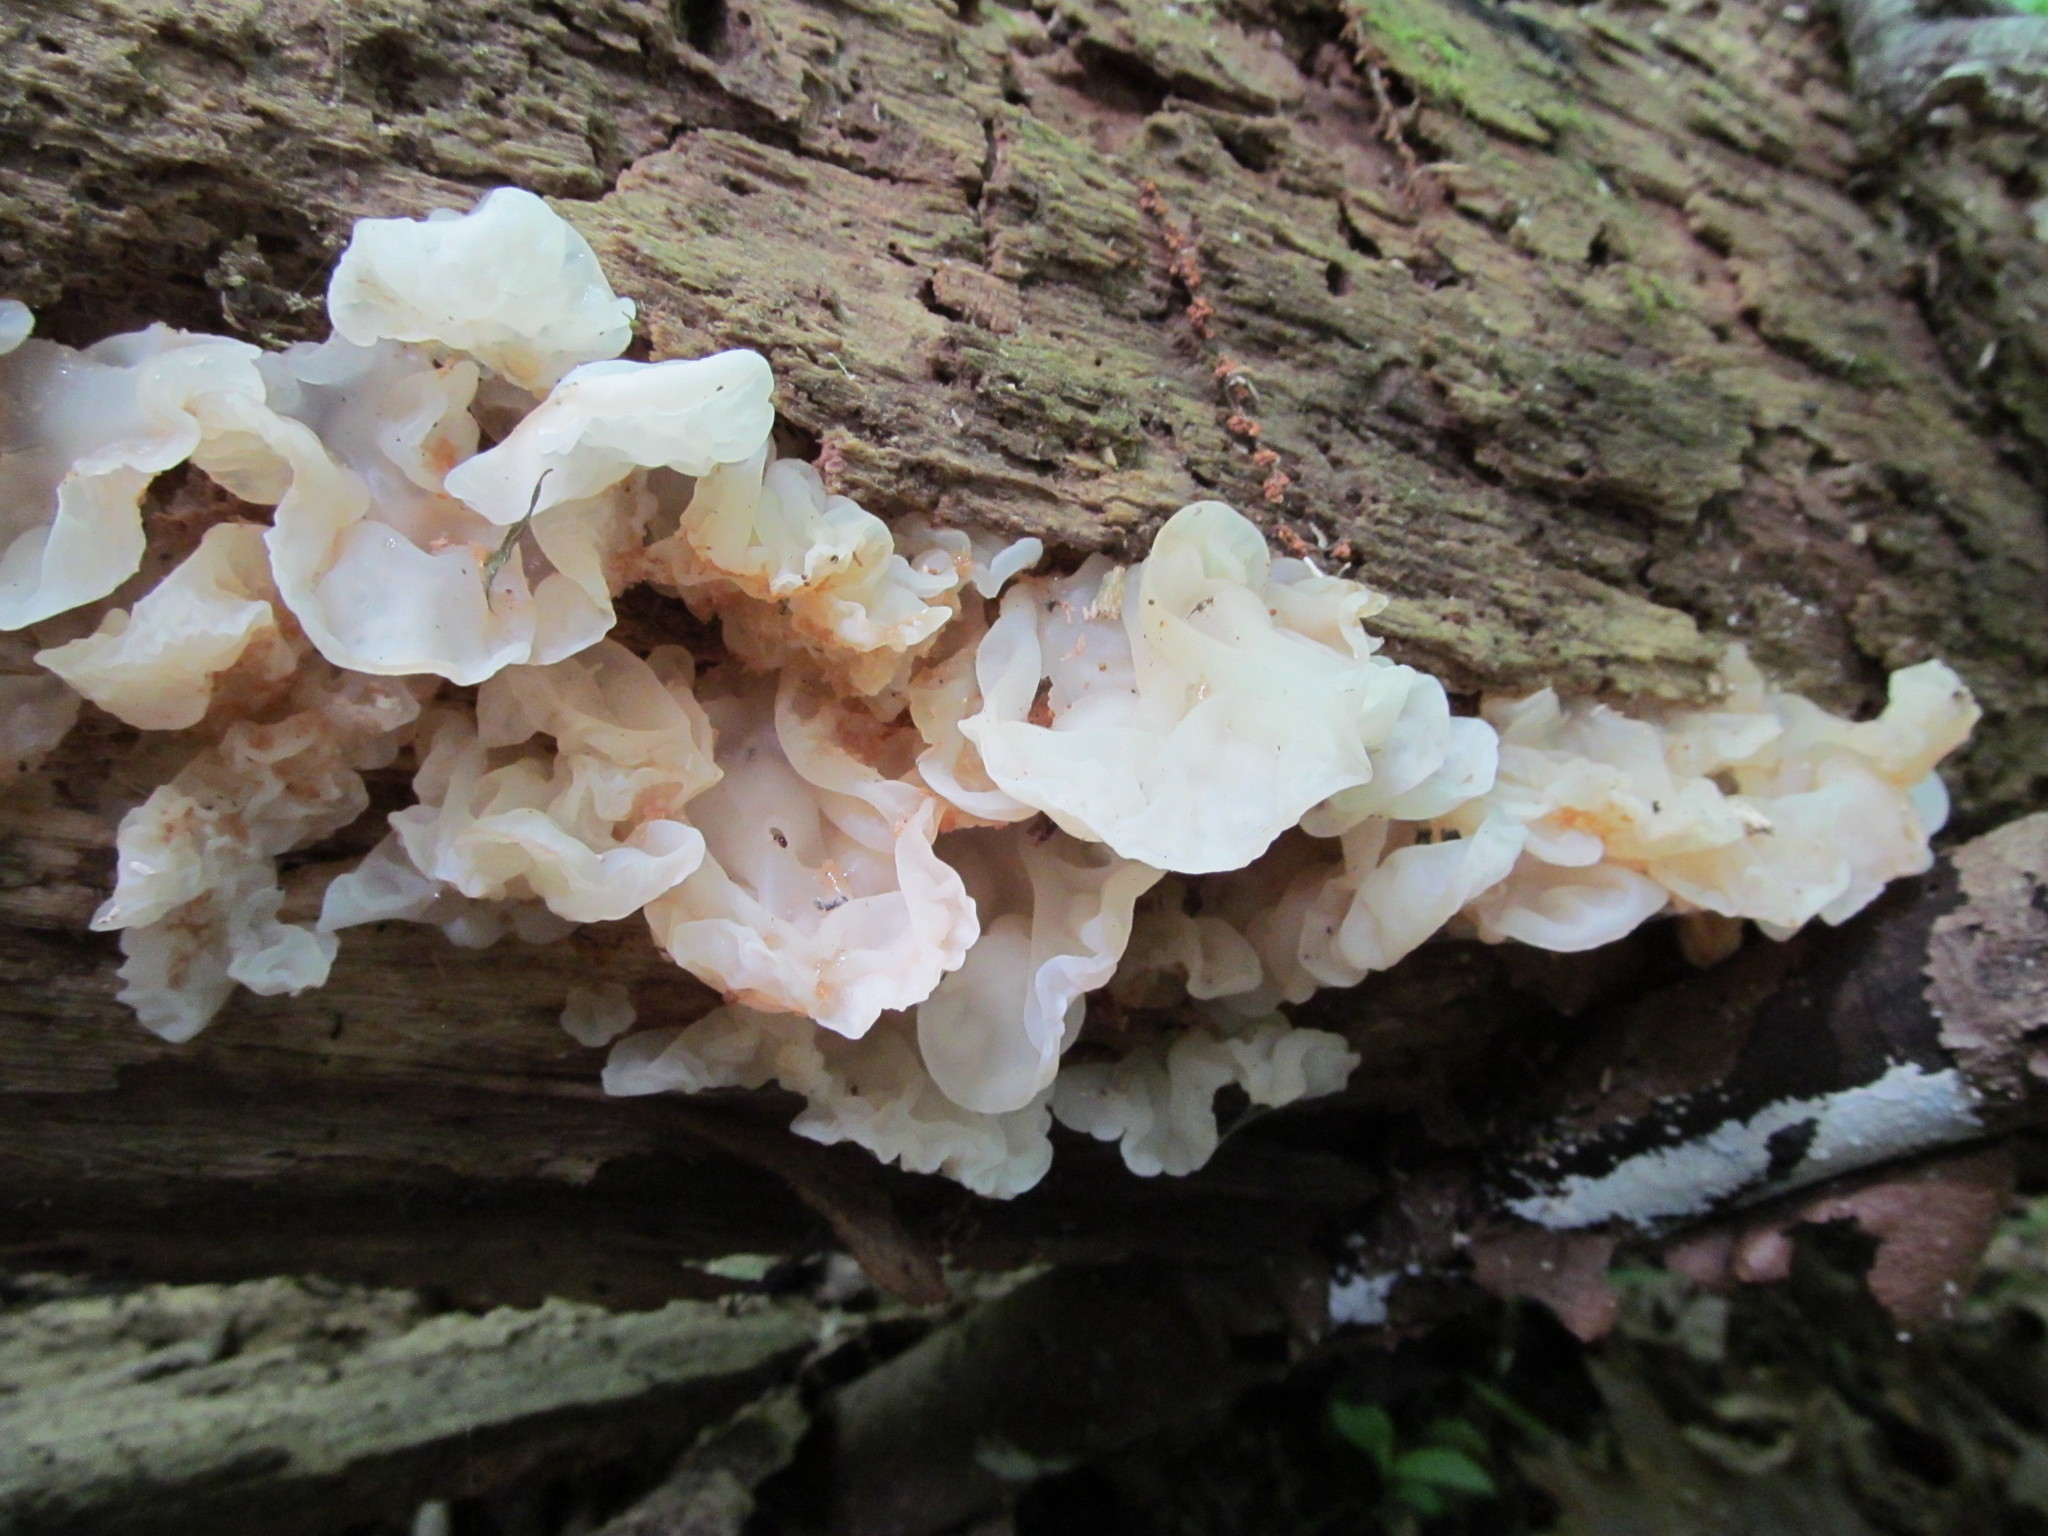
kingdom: Fungi
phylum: Basidiomycota
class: Agaricomycetes
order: Auriculariales
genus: Ductifera
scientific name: Ductifera pululahuana
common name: White jelly fungus
